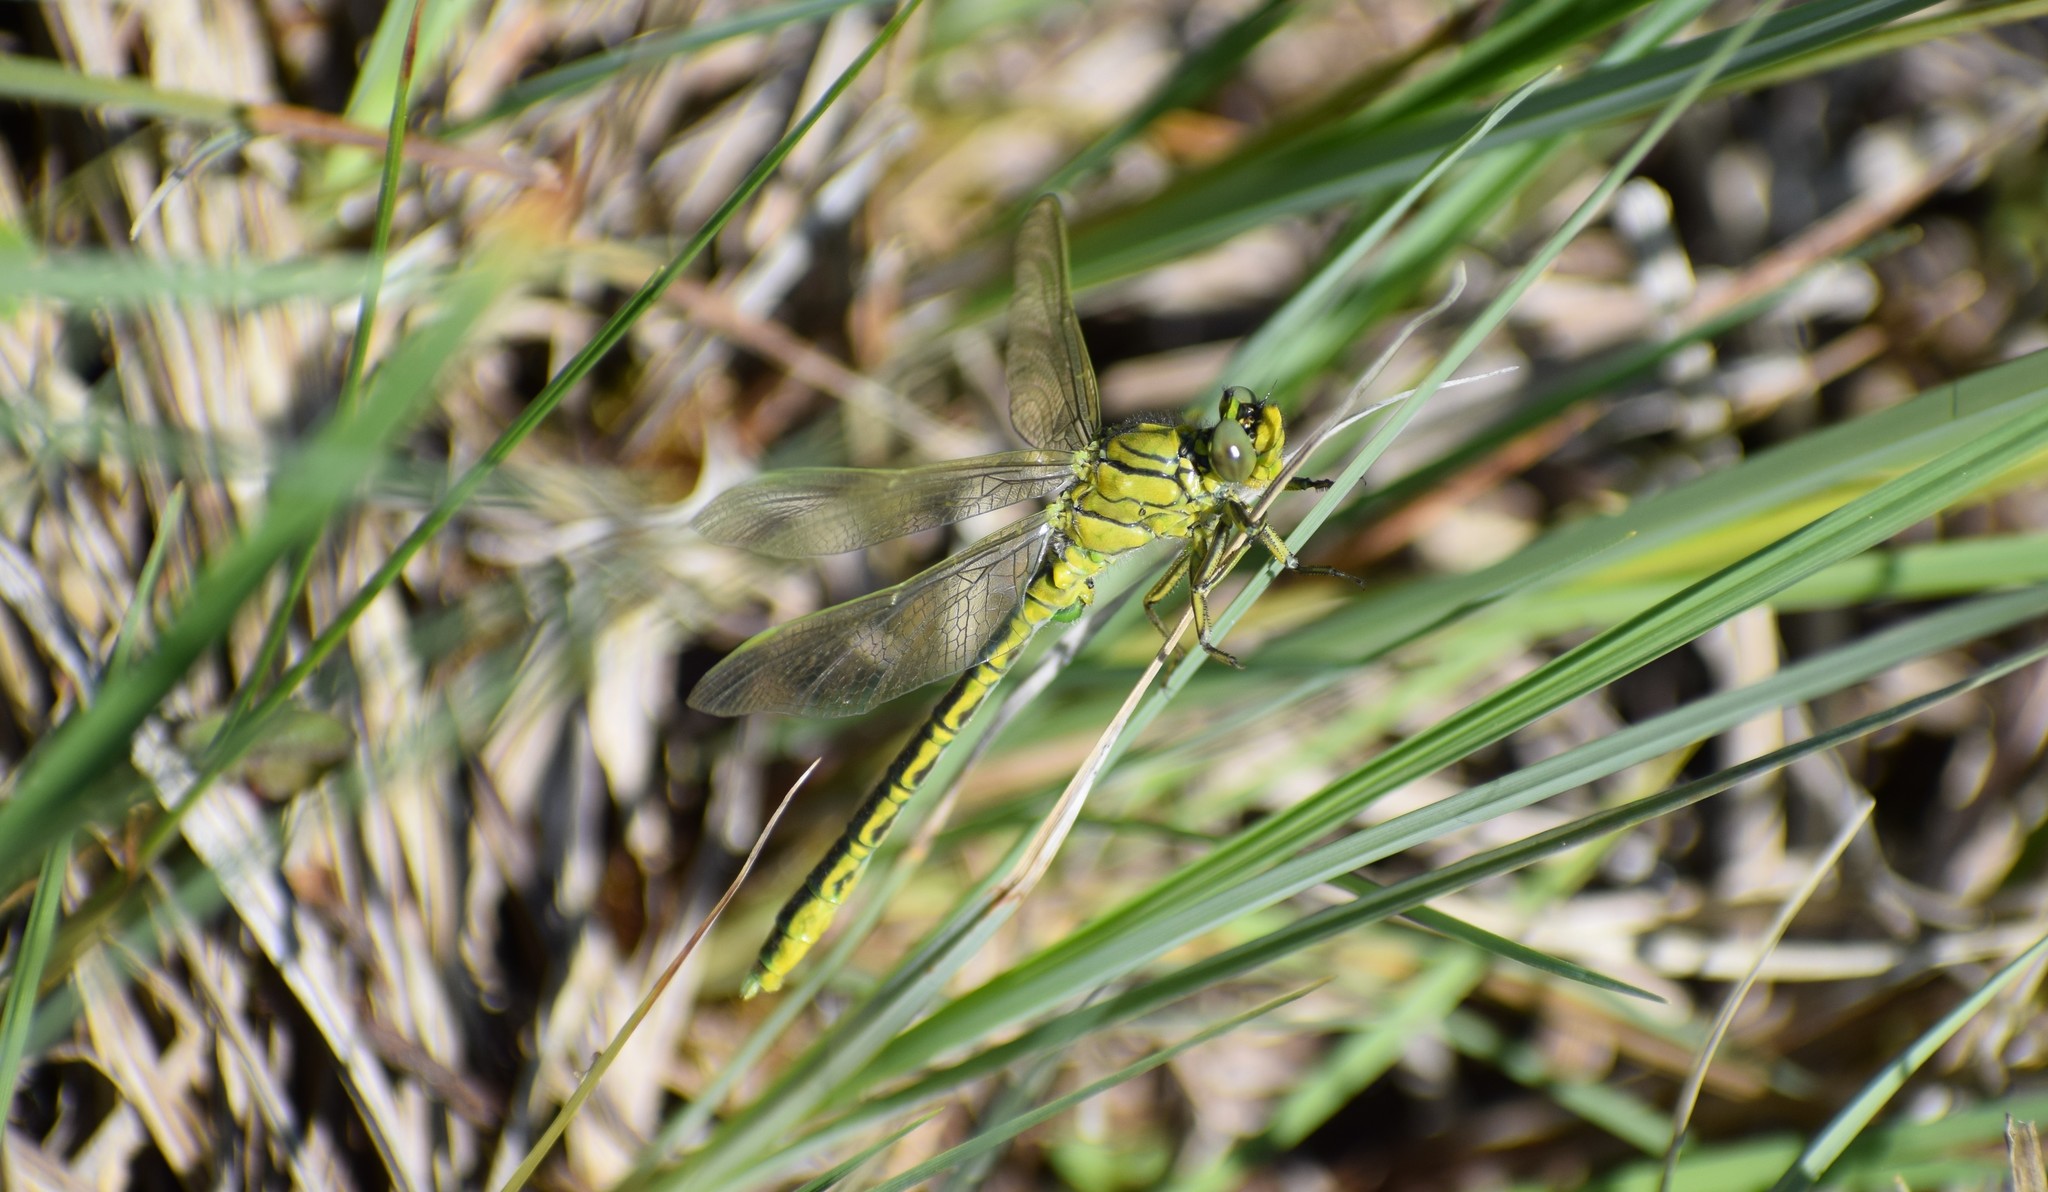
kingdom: Animalia
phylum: Arthropoda
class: Insecta
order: Odonata
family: Gomphidae
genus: Gomphus
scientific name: Gomphus pulchellus
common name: Western clubtail
